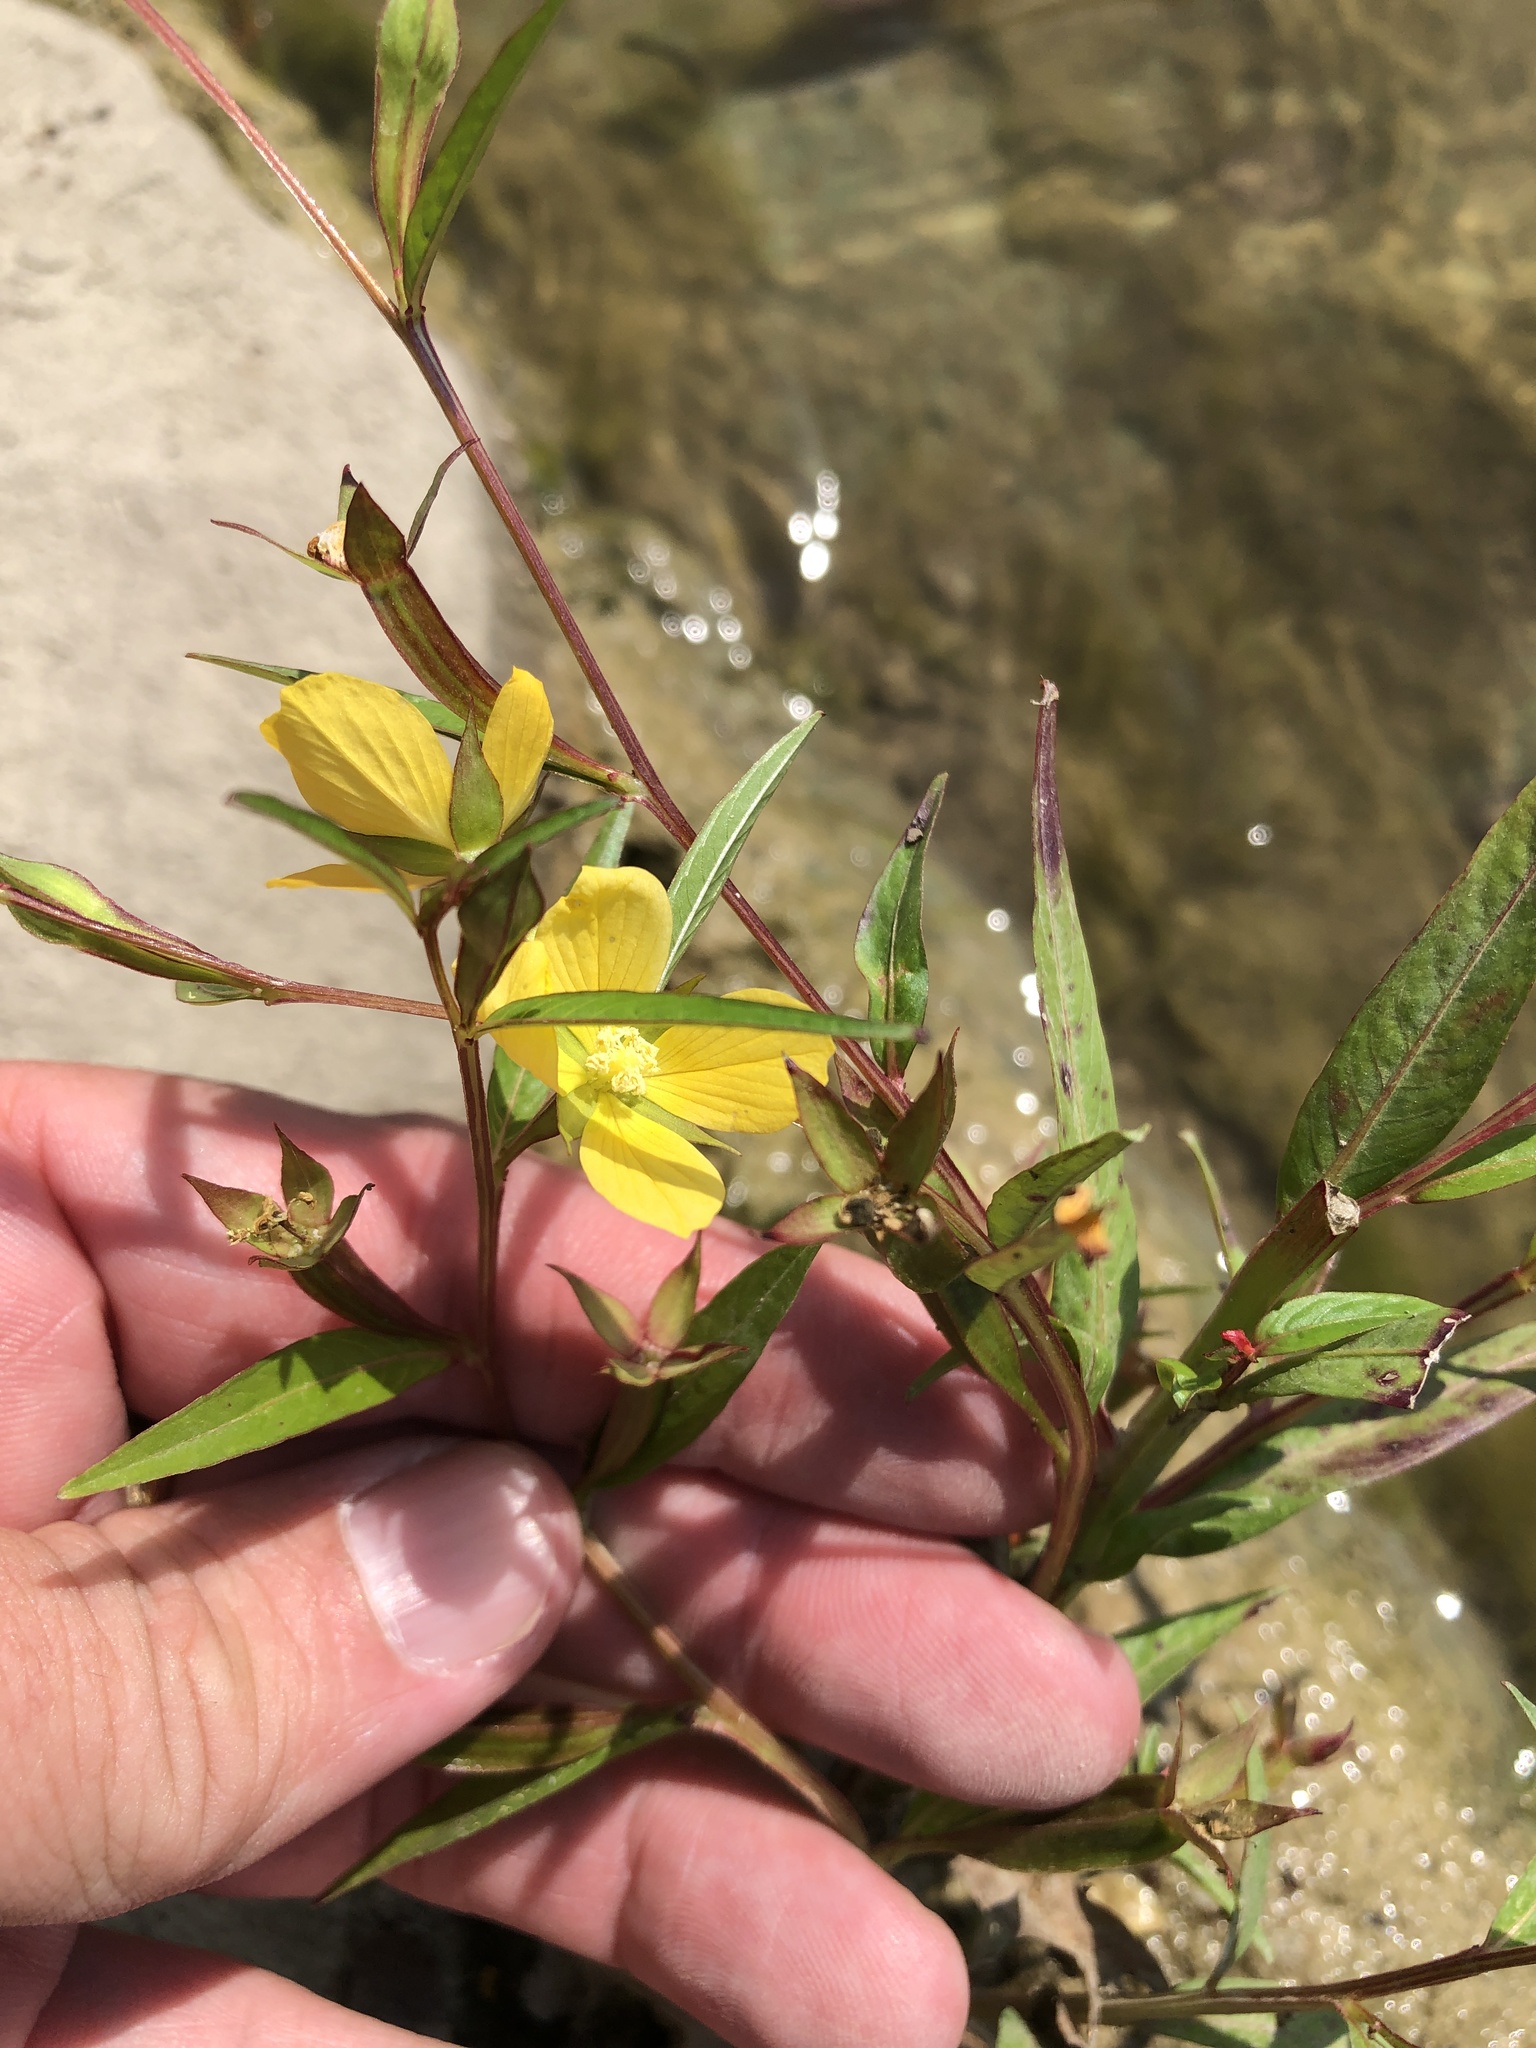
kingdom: Plantae
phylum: Tracheophyta
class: Magnoliopsida
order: Myrtales
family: Onagraceae
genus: Ludwigia
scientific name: Ludwigia decurrens
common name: Winged water-primrose
